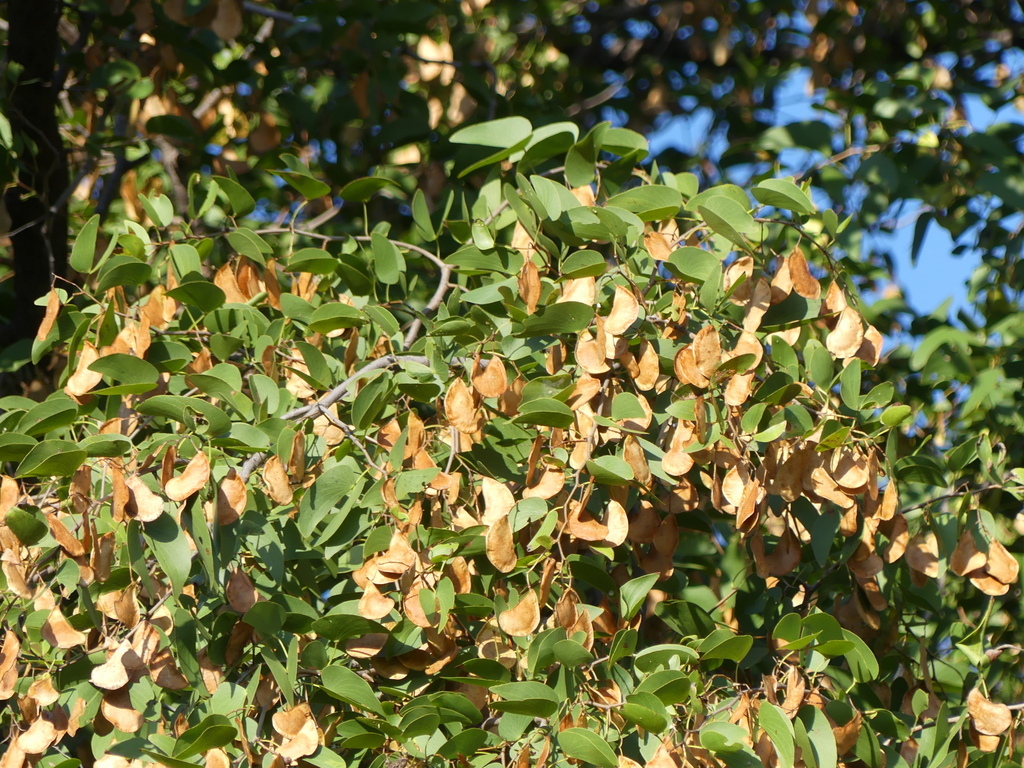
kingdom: Plantae
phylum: Tracheophyta
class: Magnoliopsida
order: Fabales
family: Fabaceae
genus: Colophospermum
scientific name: Colophospermum mopane
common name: Mopane
